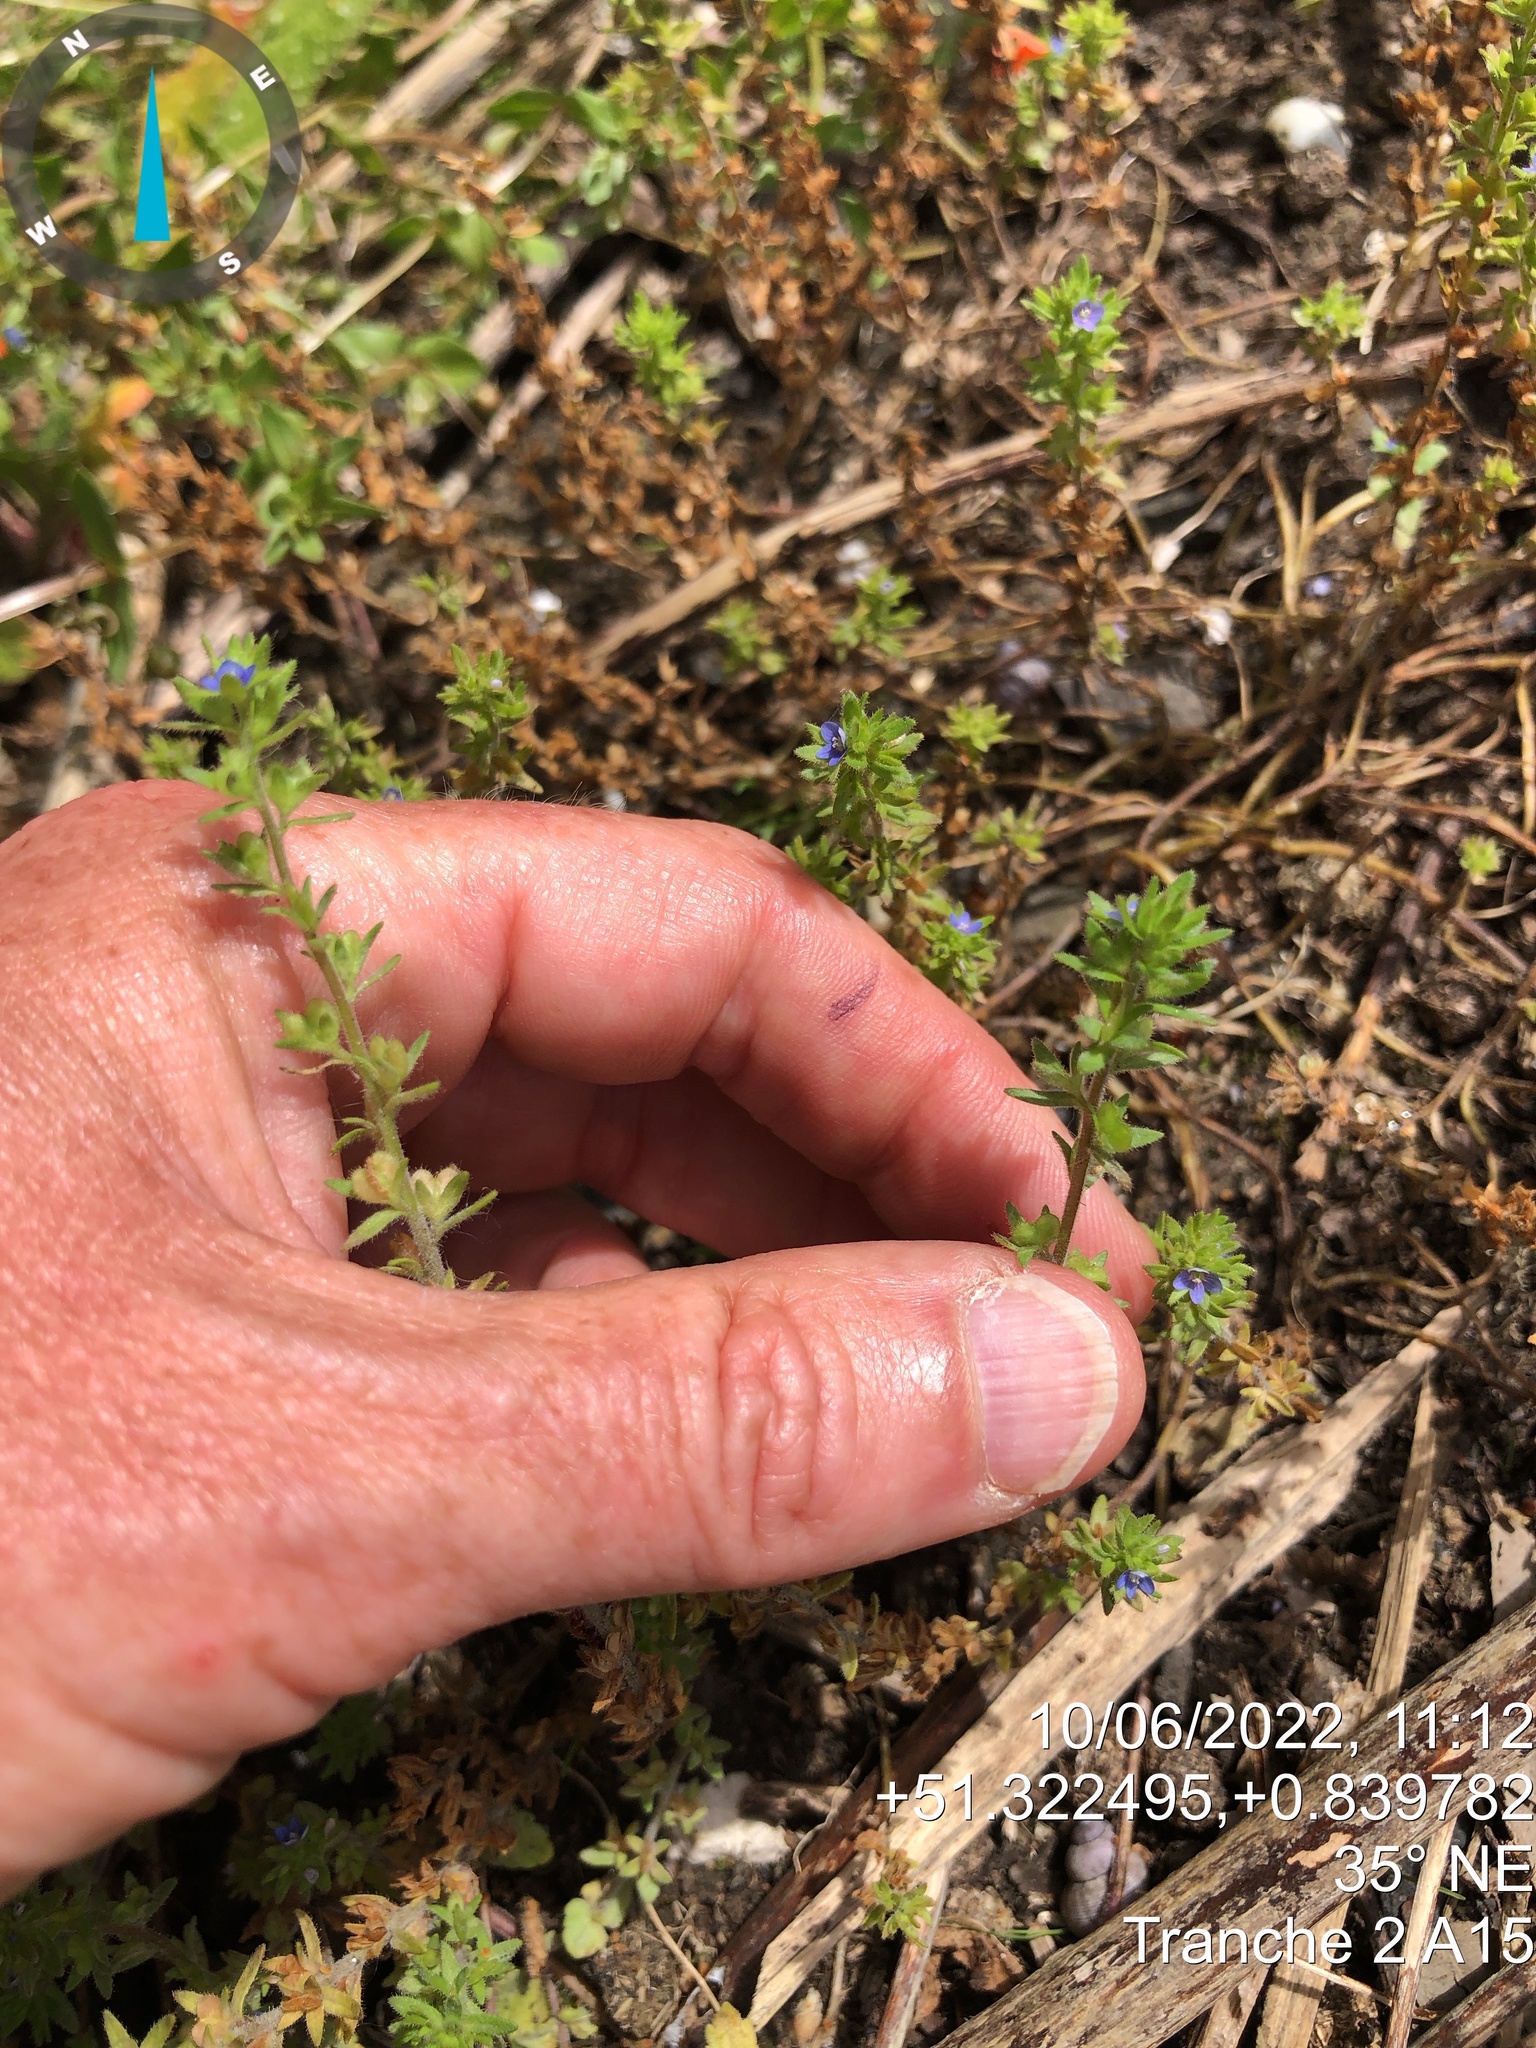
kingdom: Plantae
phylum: Tracheophyta
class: Magnoliopsida
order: Lamiales
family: Plantaginaceae
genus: Veronica
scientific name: Veronica arvensis
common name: Corn speedwell
